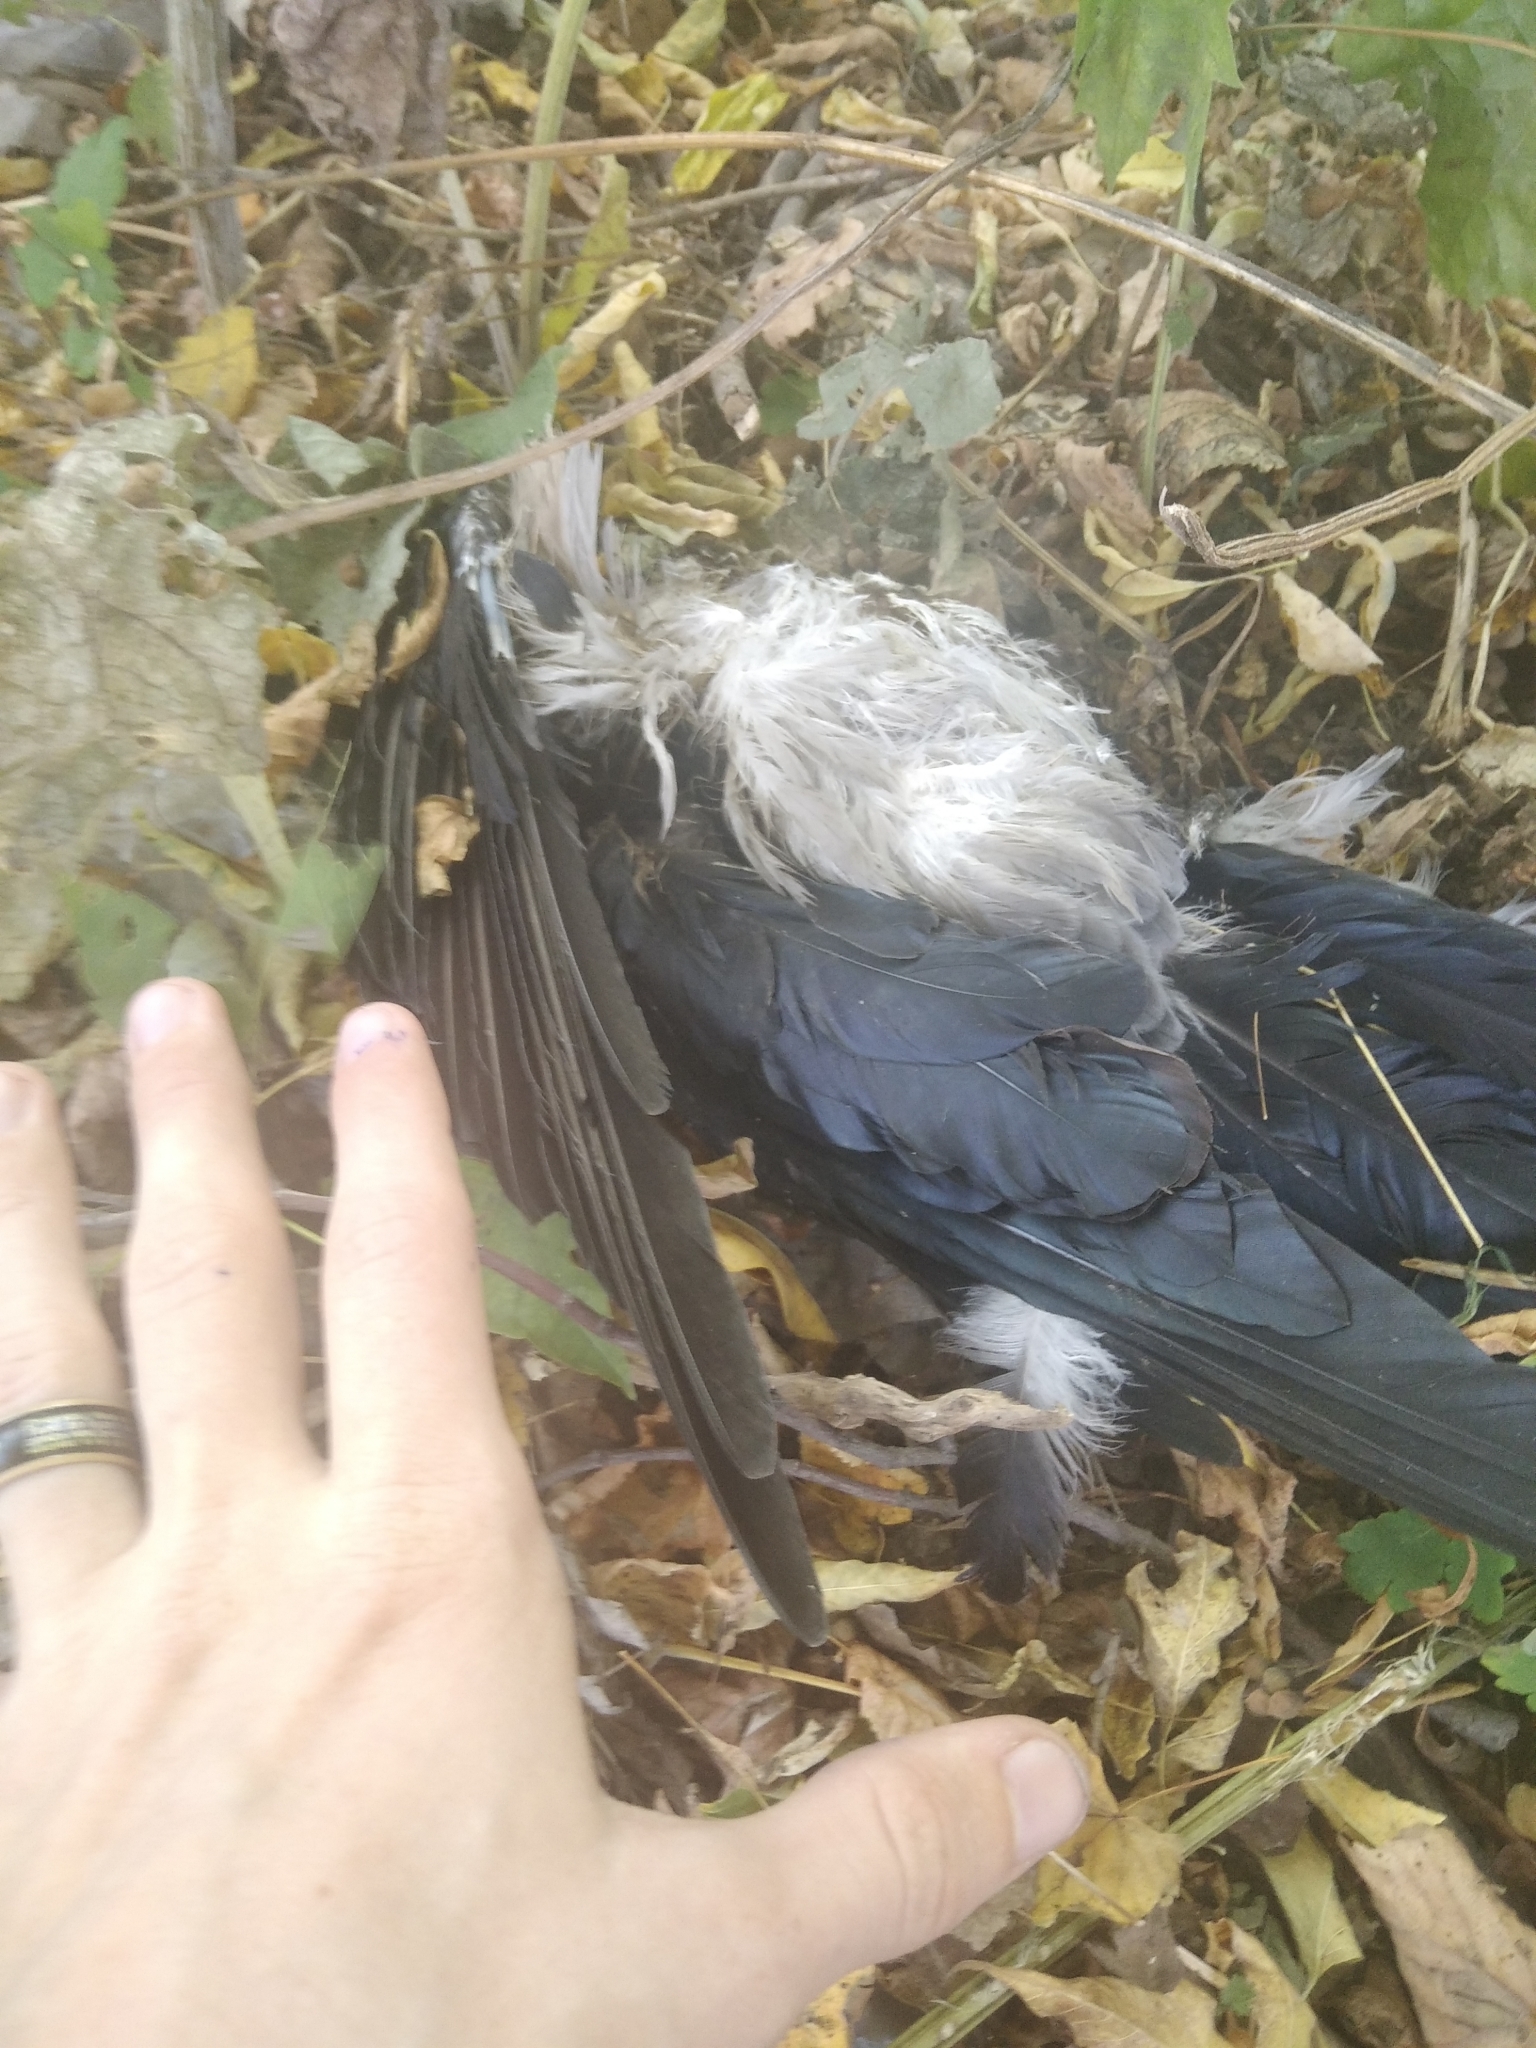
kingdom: Animalia
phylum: Chordata
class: Aves
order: Passeriformes
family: Corvidae
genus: Coloeus
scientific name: Coloeus monedula
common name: Western jackdaw
